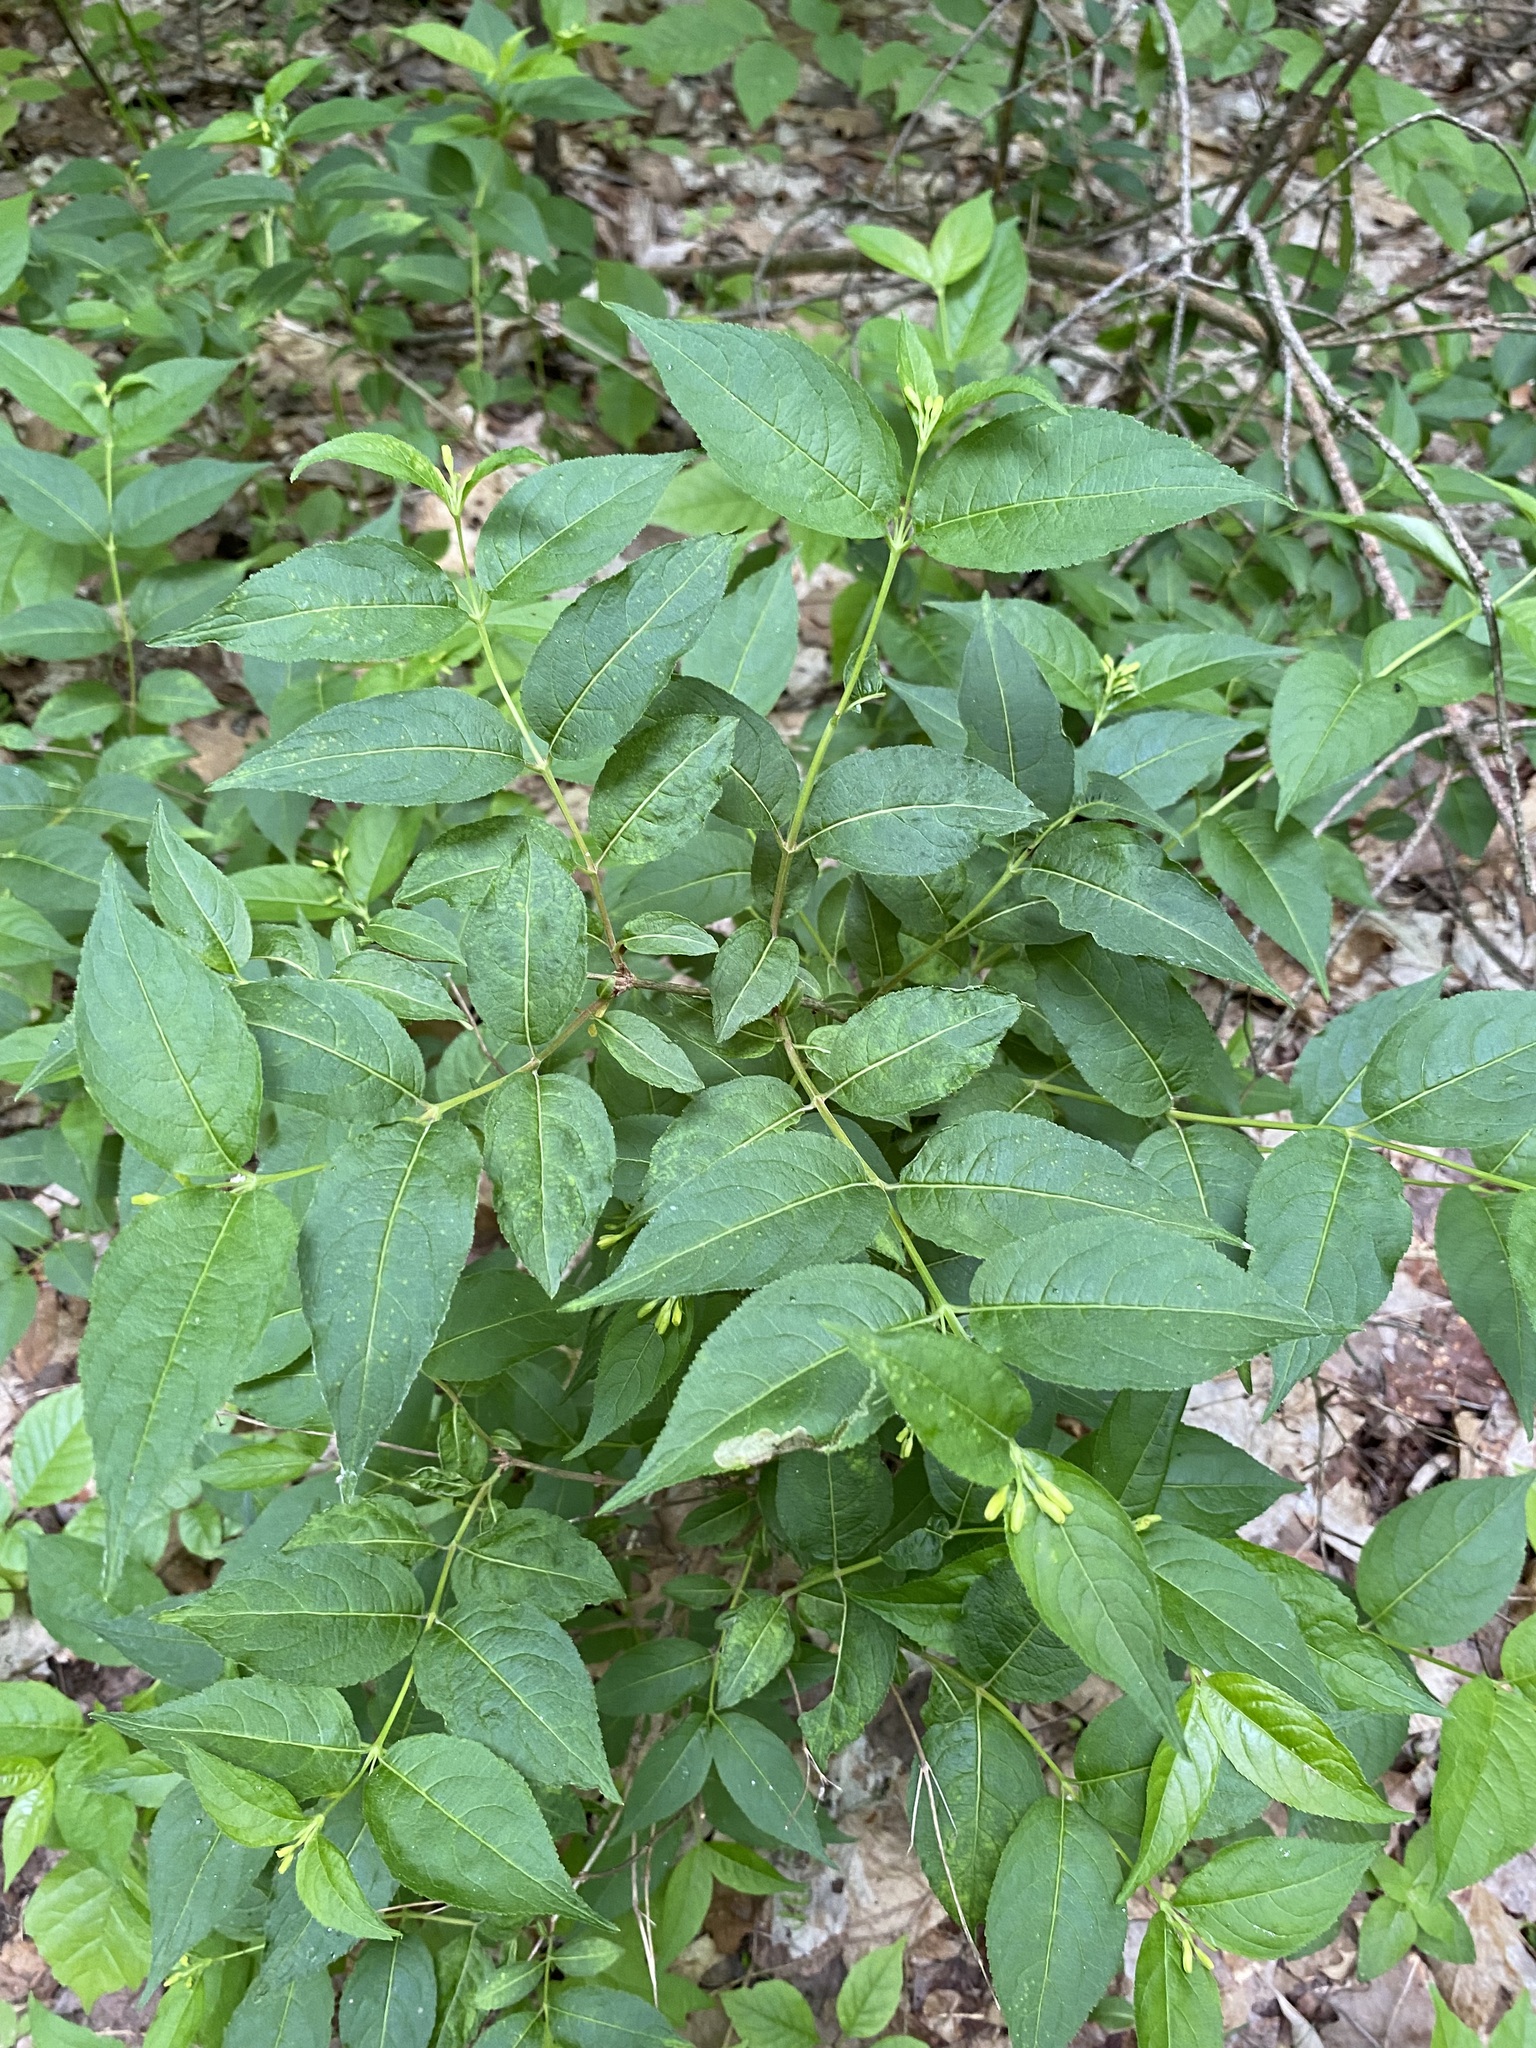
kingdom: Plantae
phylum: Tracheophyta
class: Magnoliopsida
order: Dipsacales
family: Caprifoliaceae
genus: Diervilla
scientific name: Diervilla lonicera
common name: Bush-honeysuckle
